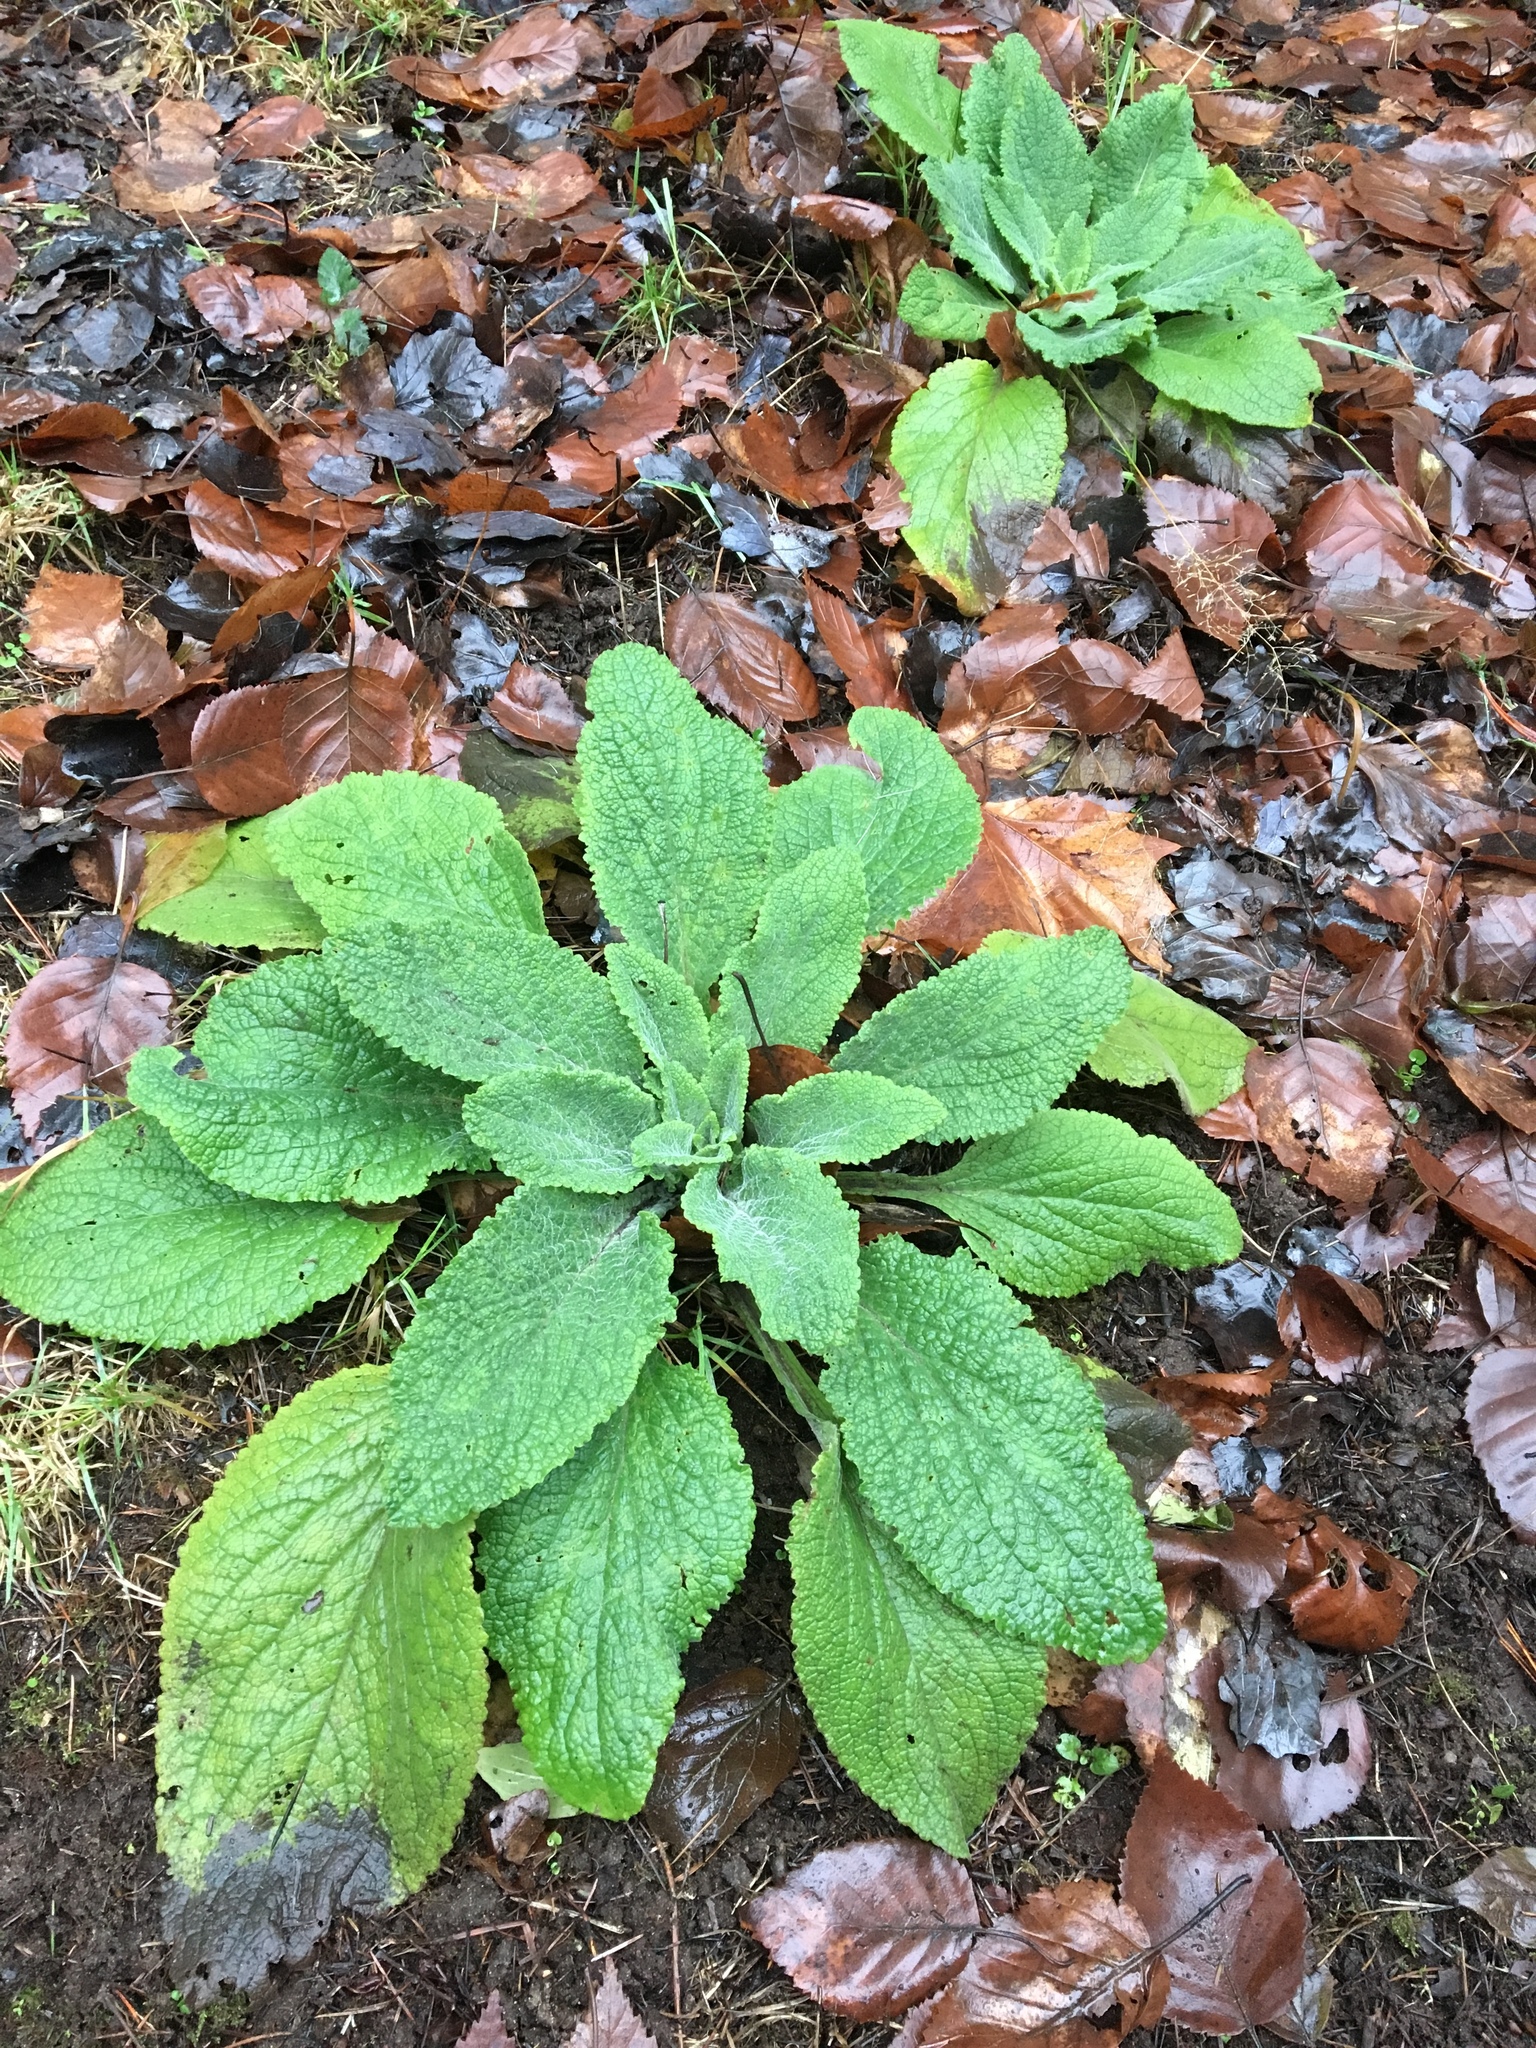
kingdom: Plantae
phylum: Tracheophyta
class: Magnoliopsida
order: Lamiales
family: Plantaginaceae
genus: Digitalis
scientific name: Digitalis purpurea
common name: Foxglove
